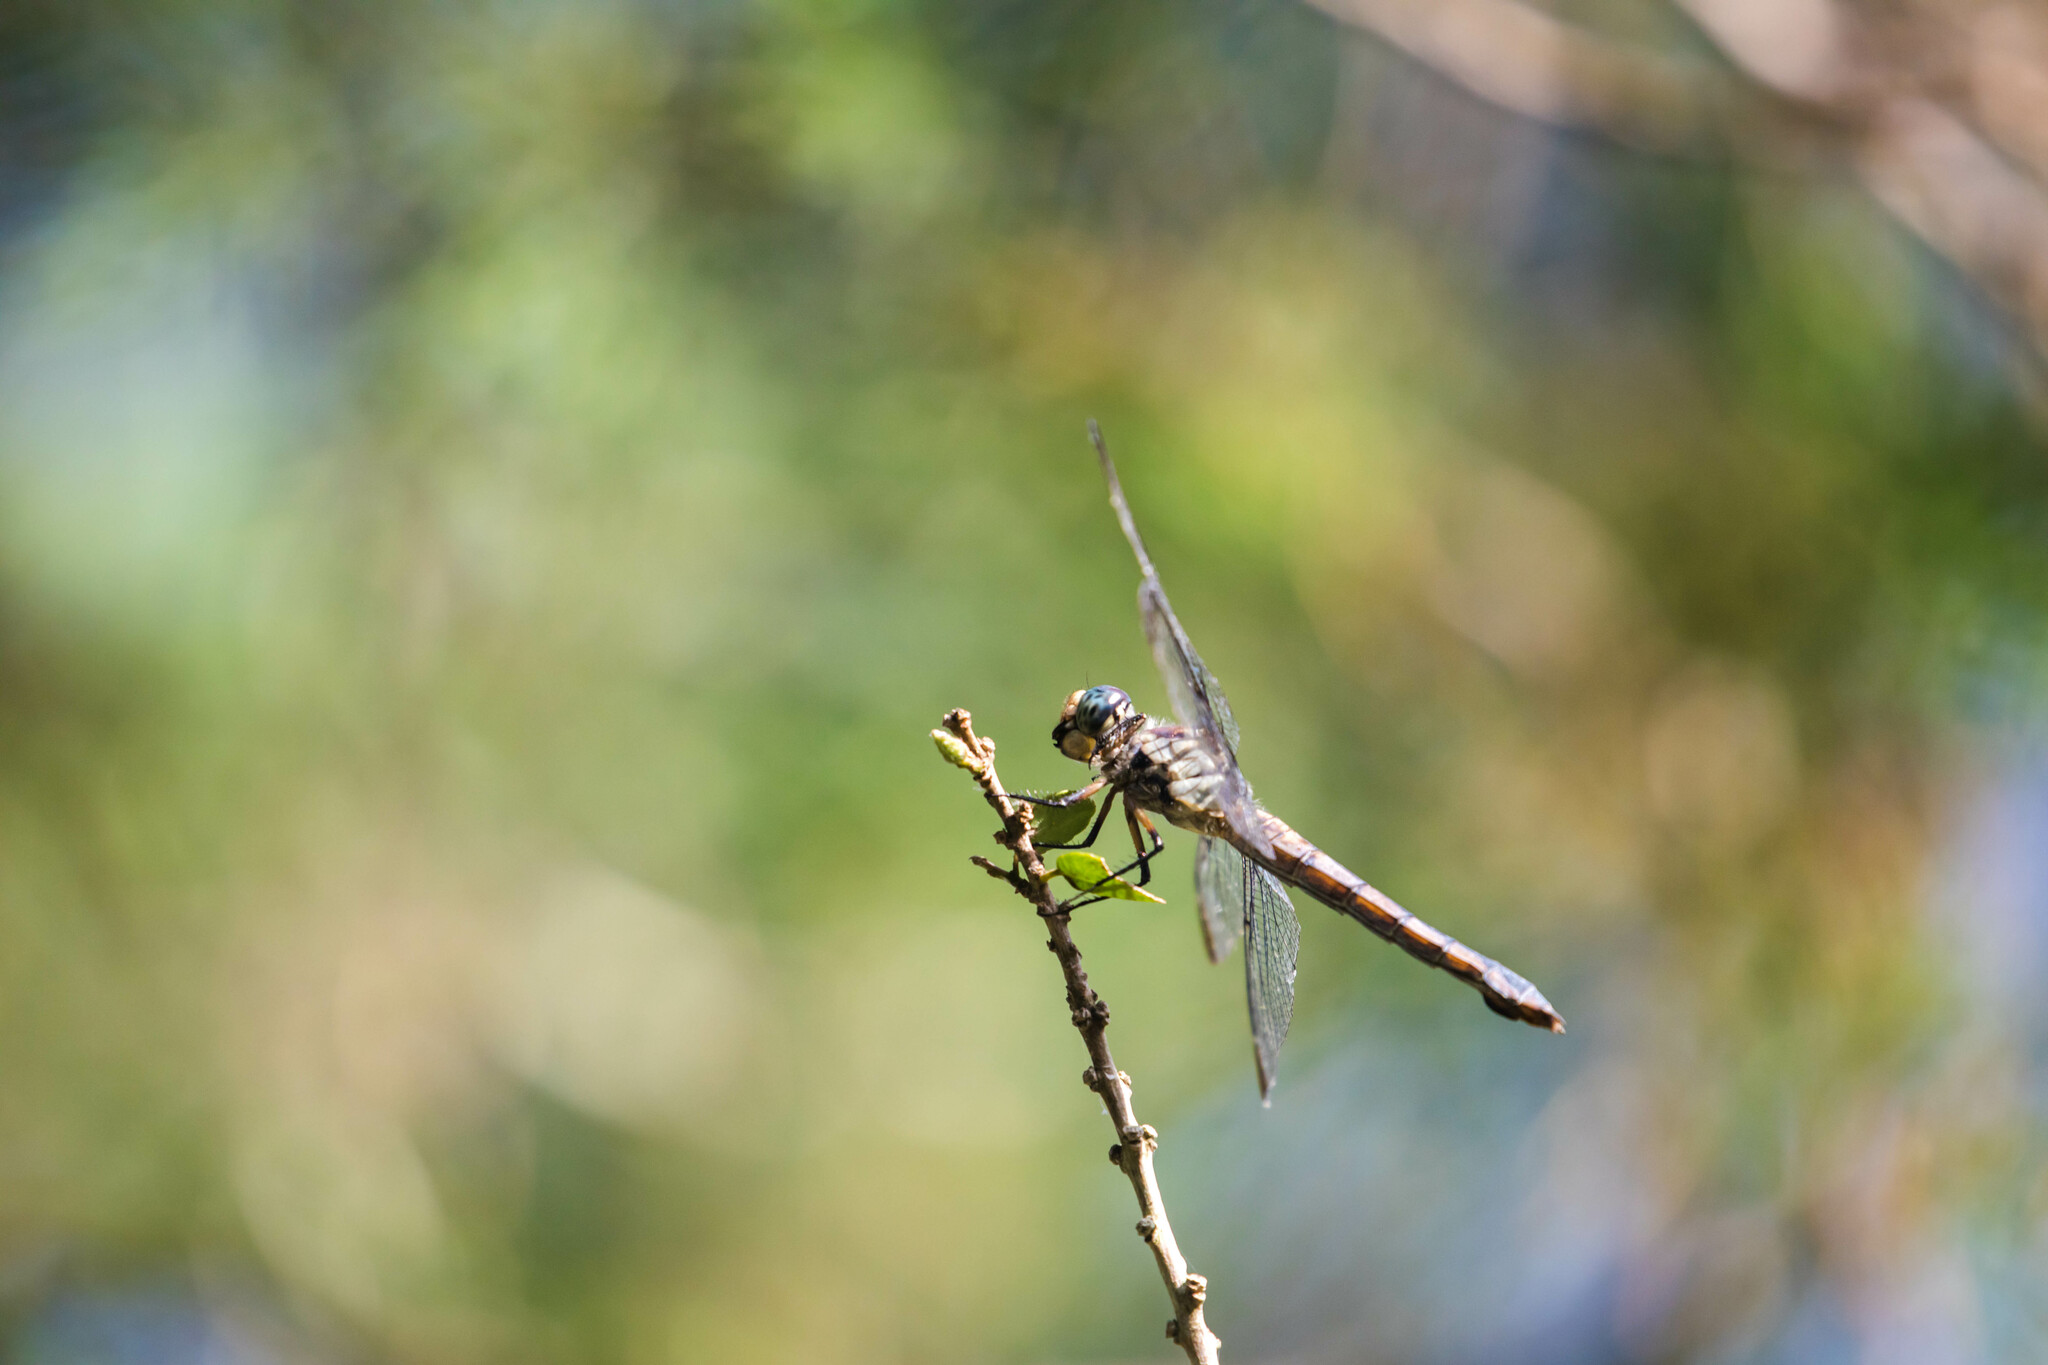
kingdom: Animalia
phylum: Arthropoda
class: Insecta
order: Odonata
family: Libellulidae
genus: Libellula
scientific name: Libellula vibrans
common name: Great blue skimmer
